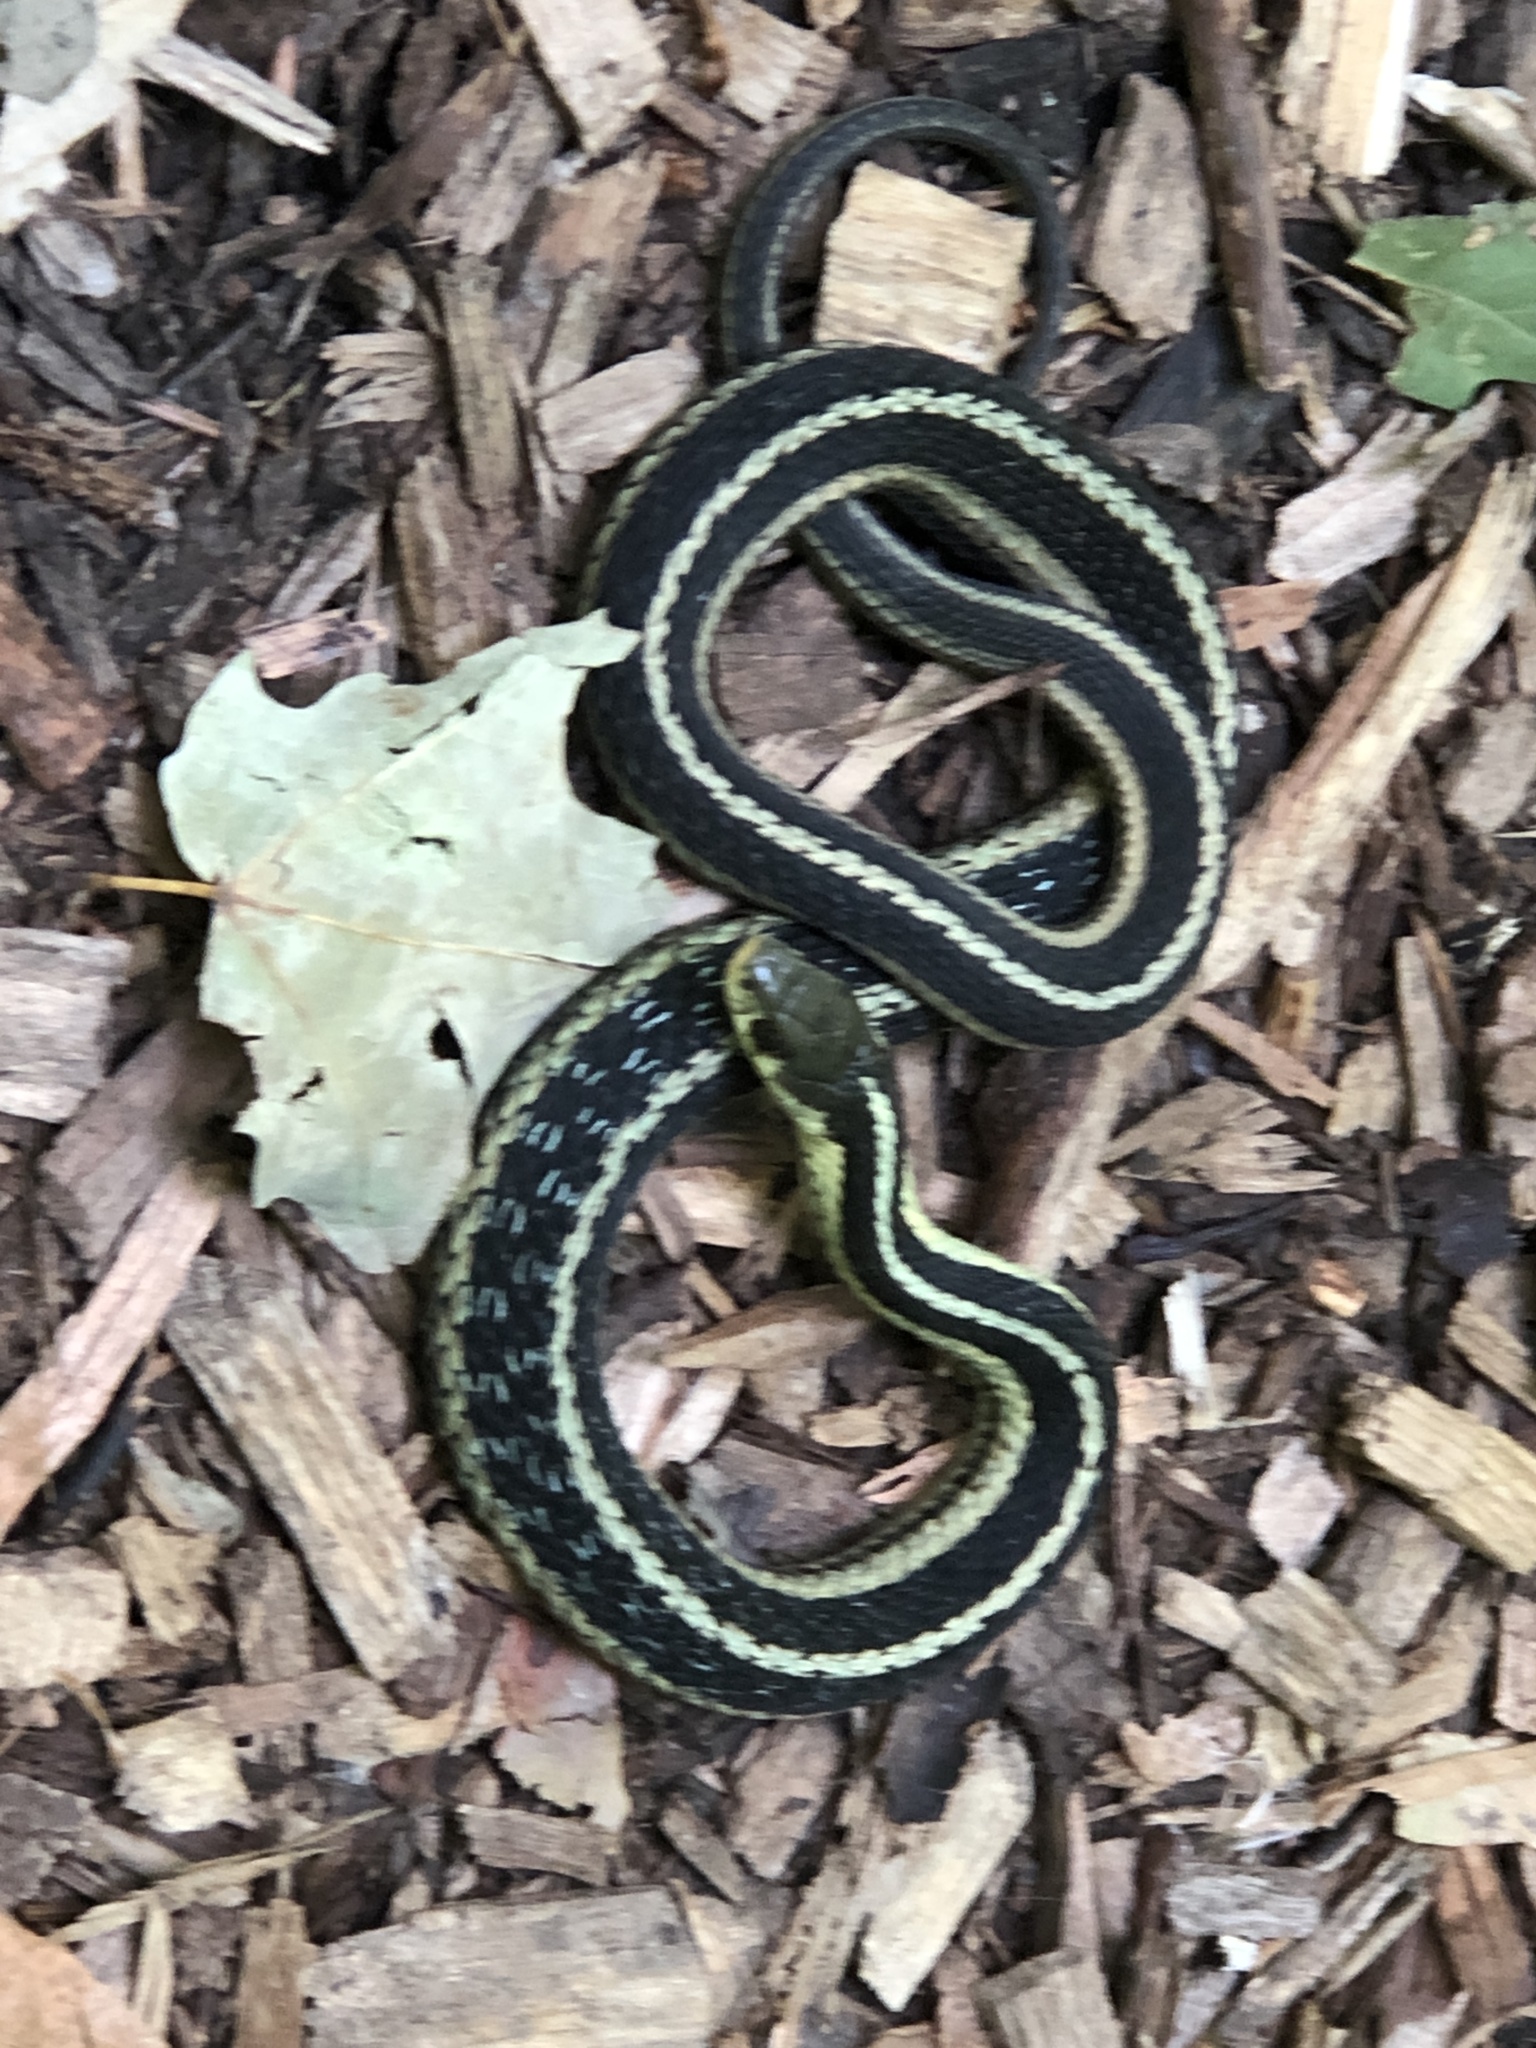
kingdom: Animalia
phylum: Chordata
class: Squamata
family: Colubridae
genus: Thamnophis
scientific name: Thamnophis sirtalis
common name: Common garter snake
